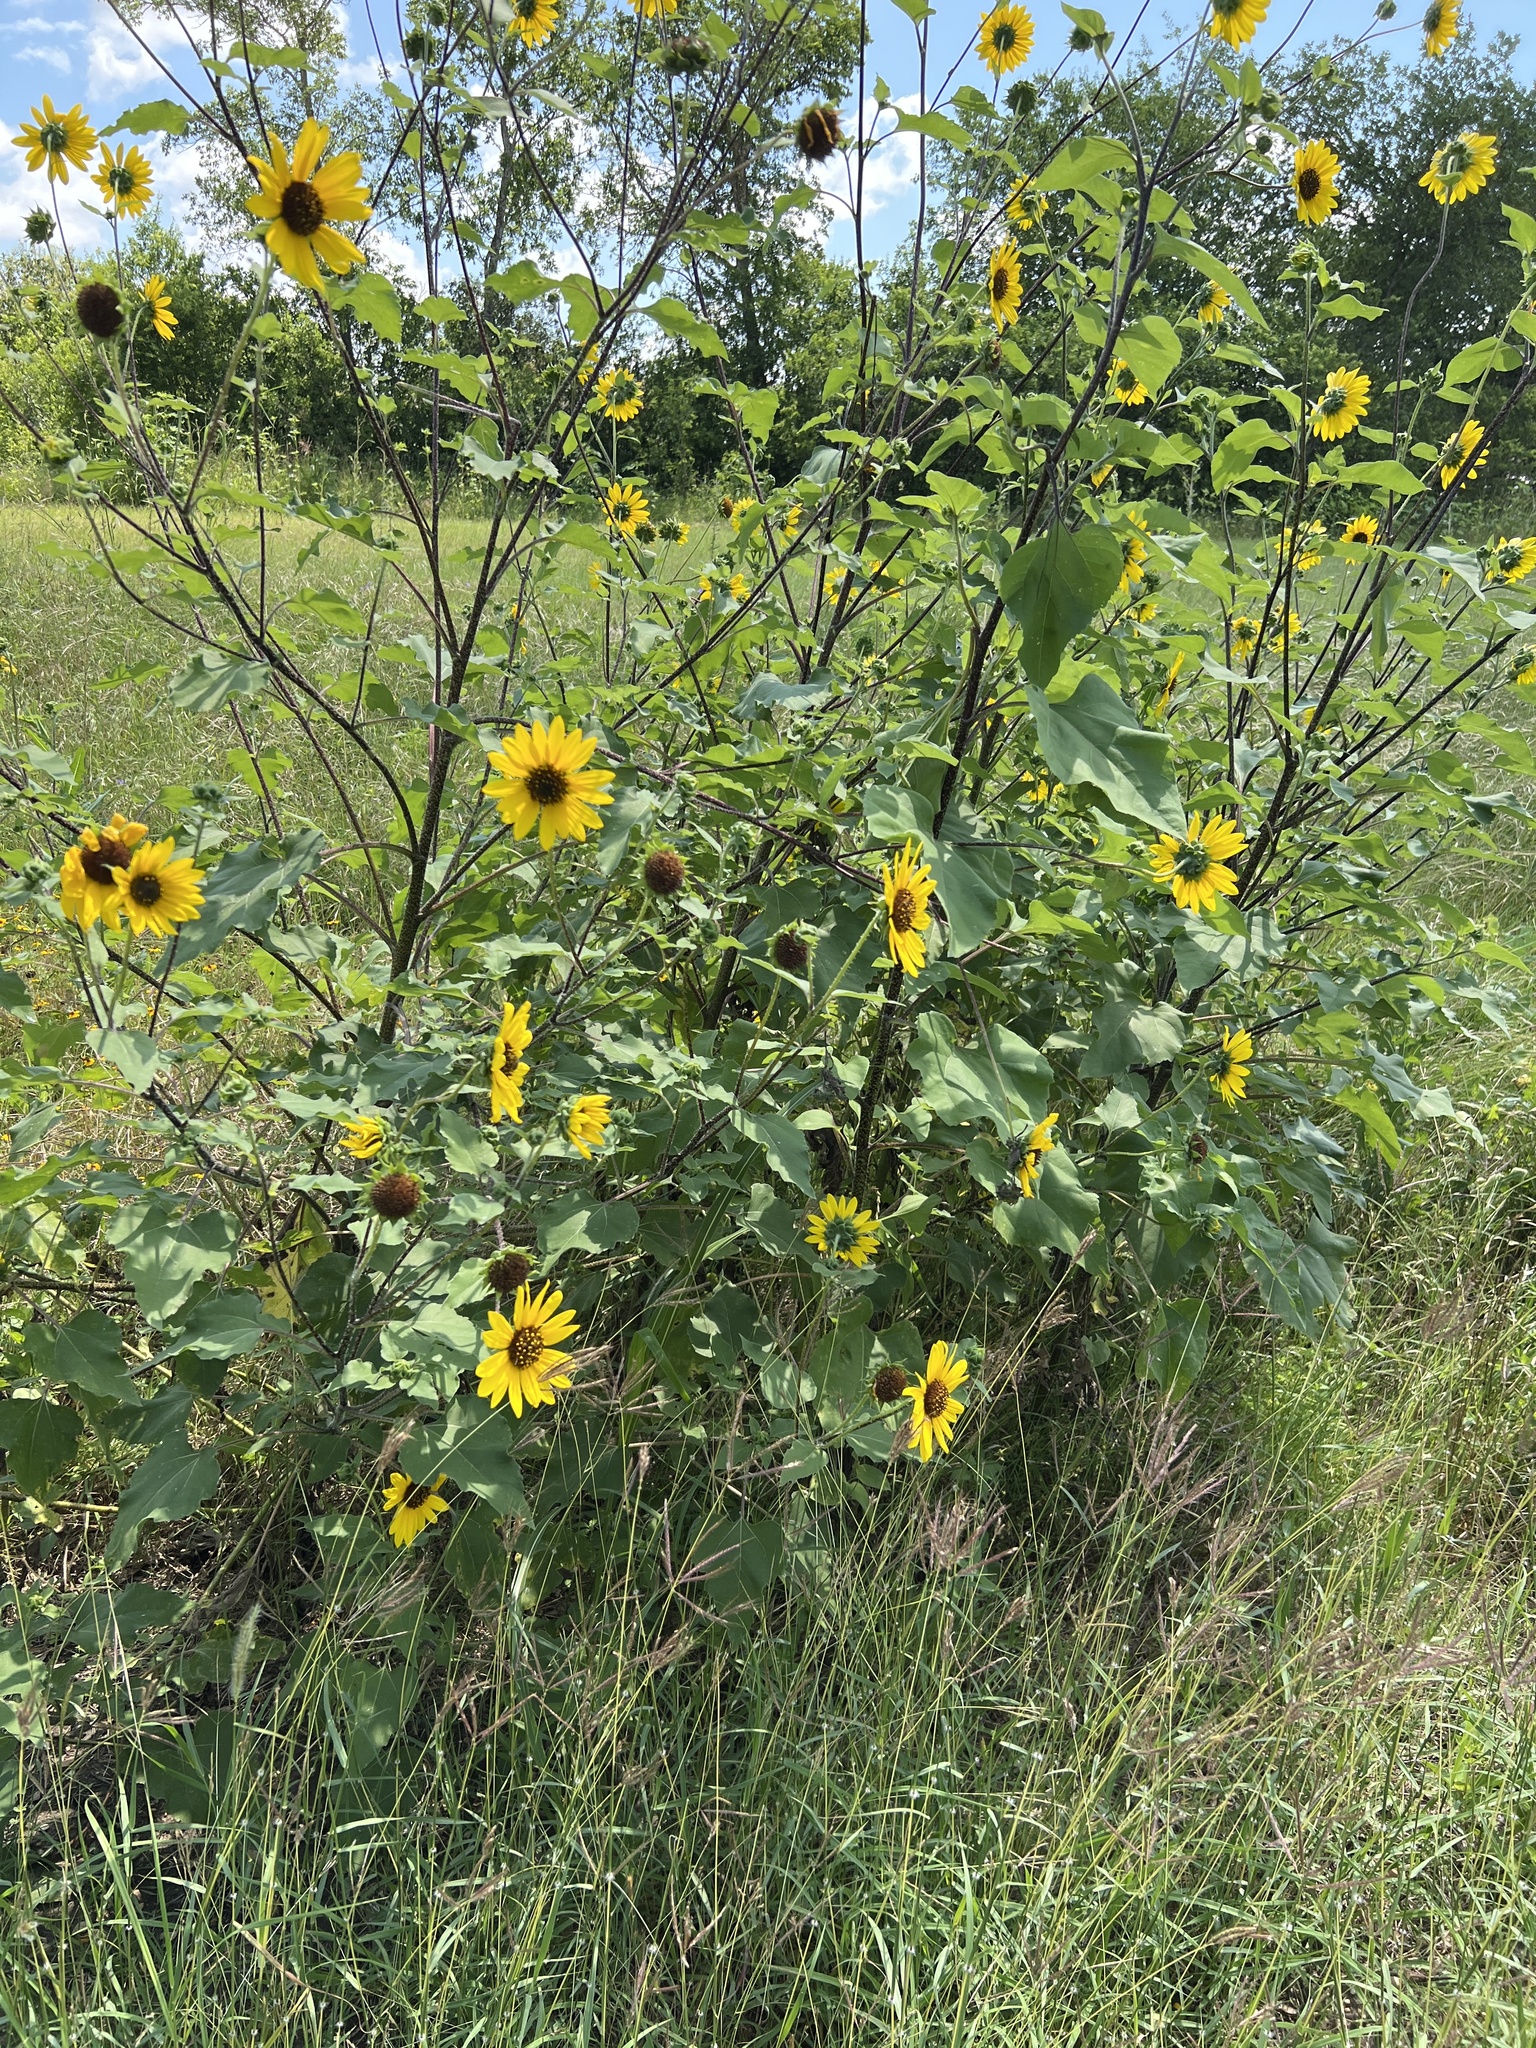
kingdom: Plantae
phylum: Tracheophyta
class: Magnoliopsida
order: Asterales
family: Asteraceae
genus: Helianthus
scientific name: Helianthus annuus
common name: Sunflower
